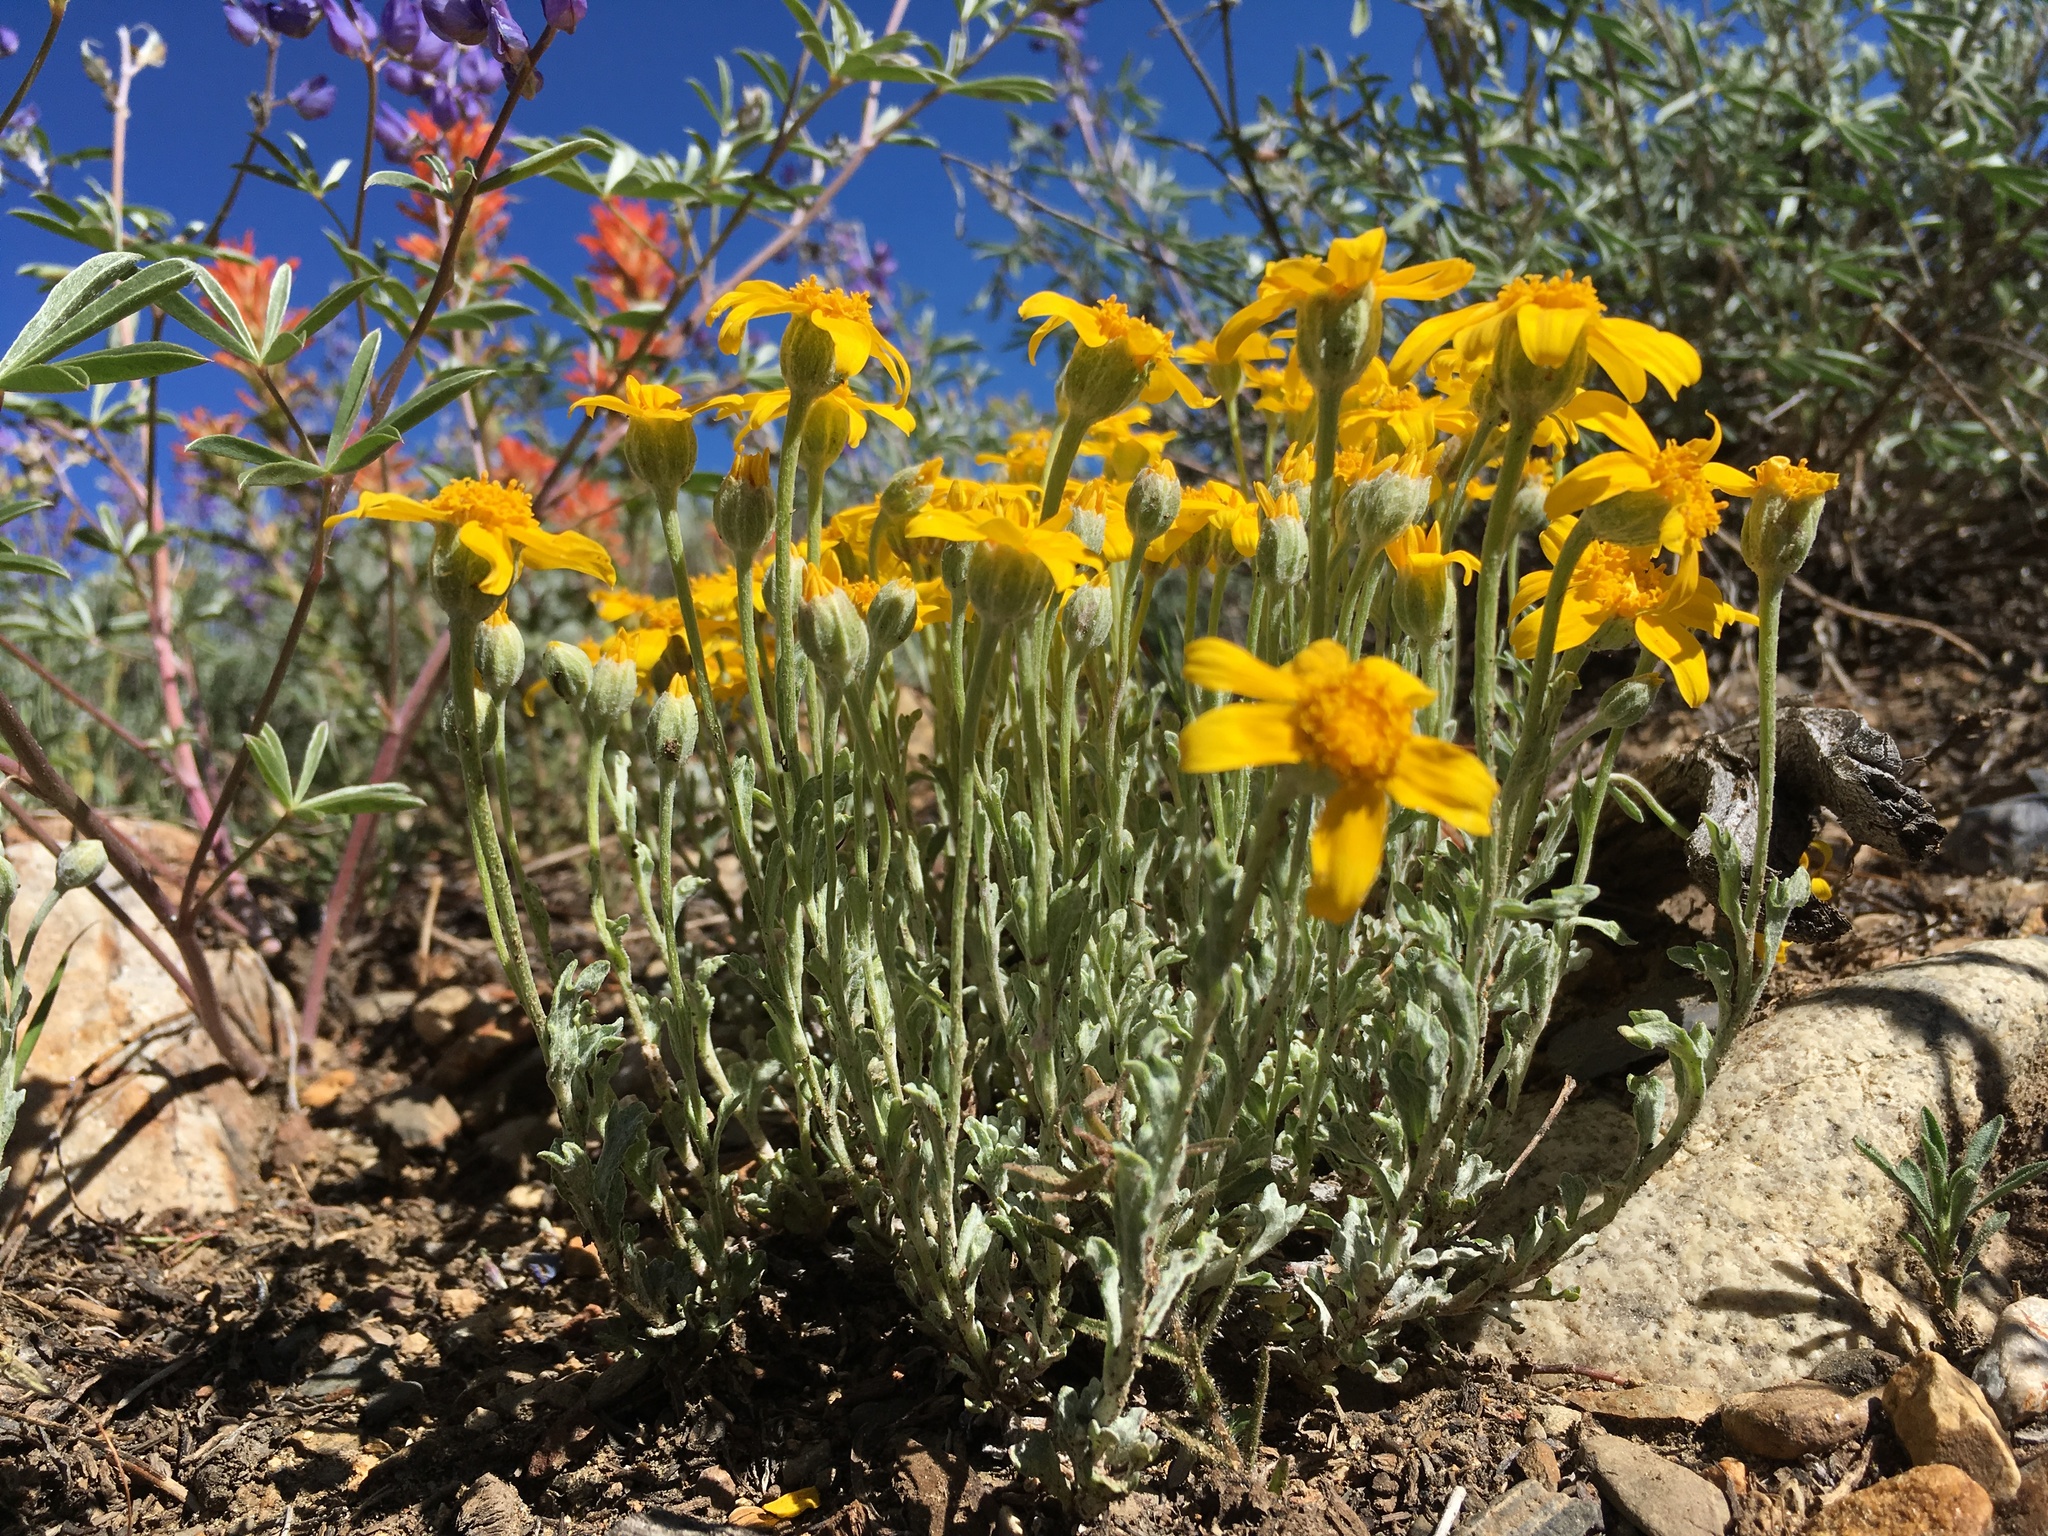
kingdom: Plantae
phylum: Tracheophyta
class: Magnoliopsida
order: Asterales
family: Asteraceae
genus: Eriophyllum
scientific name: Eriophyllum lanatum
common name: Common woolly-sunflower
